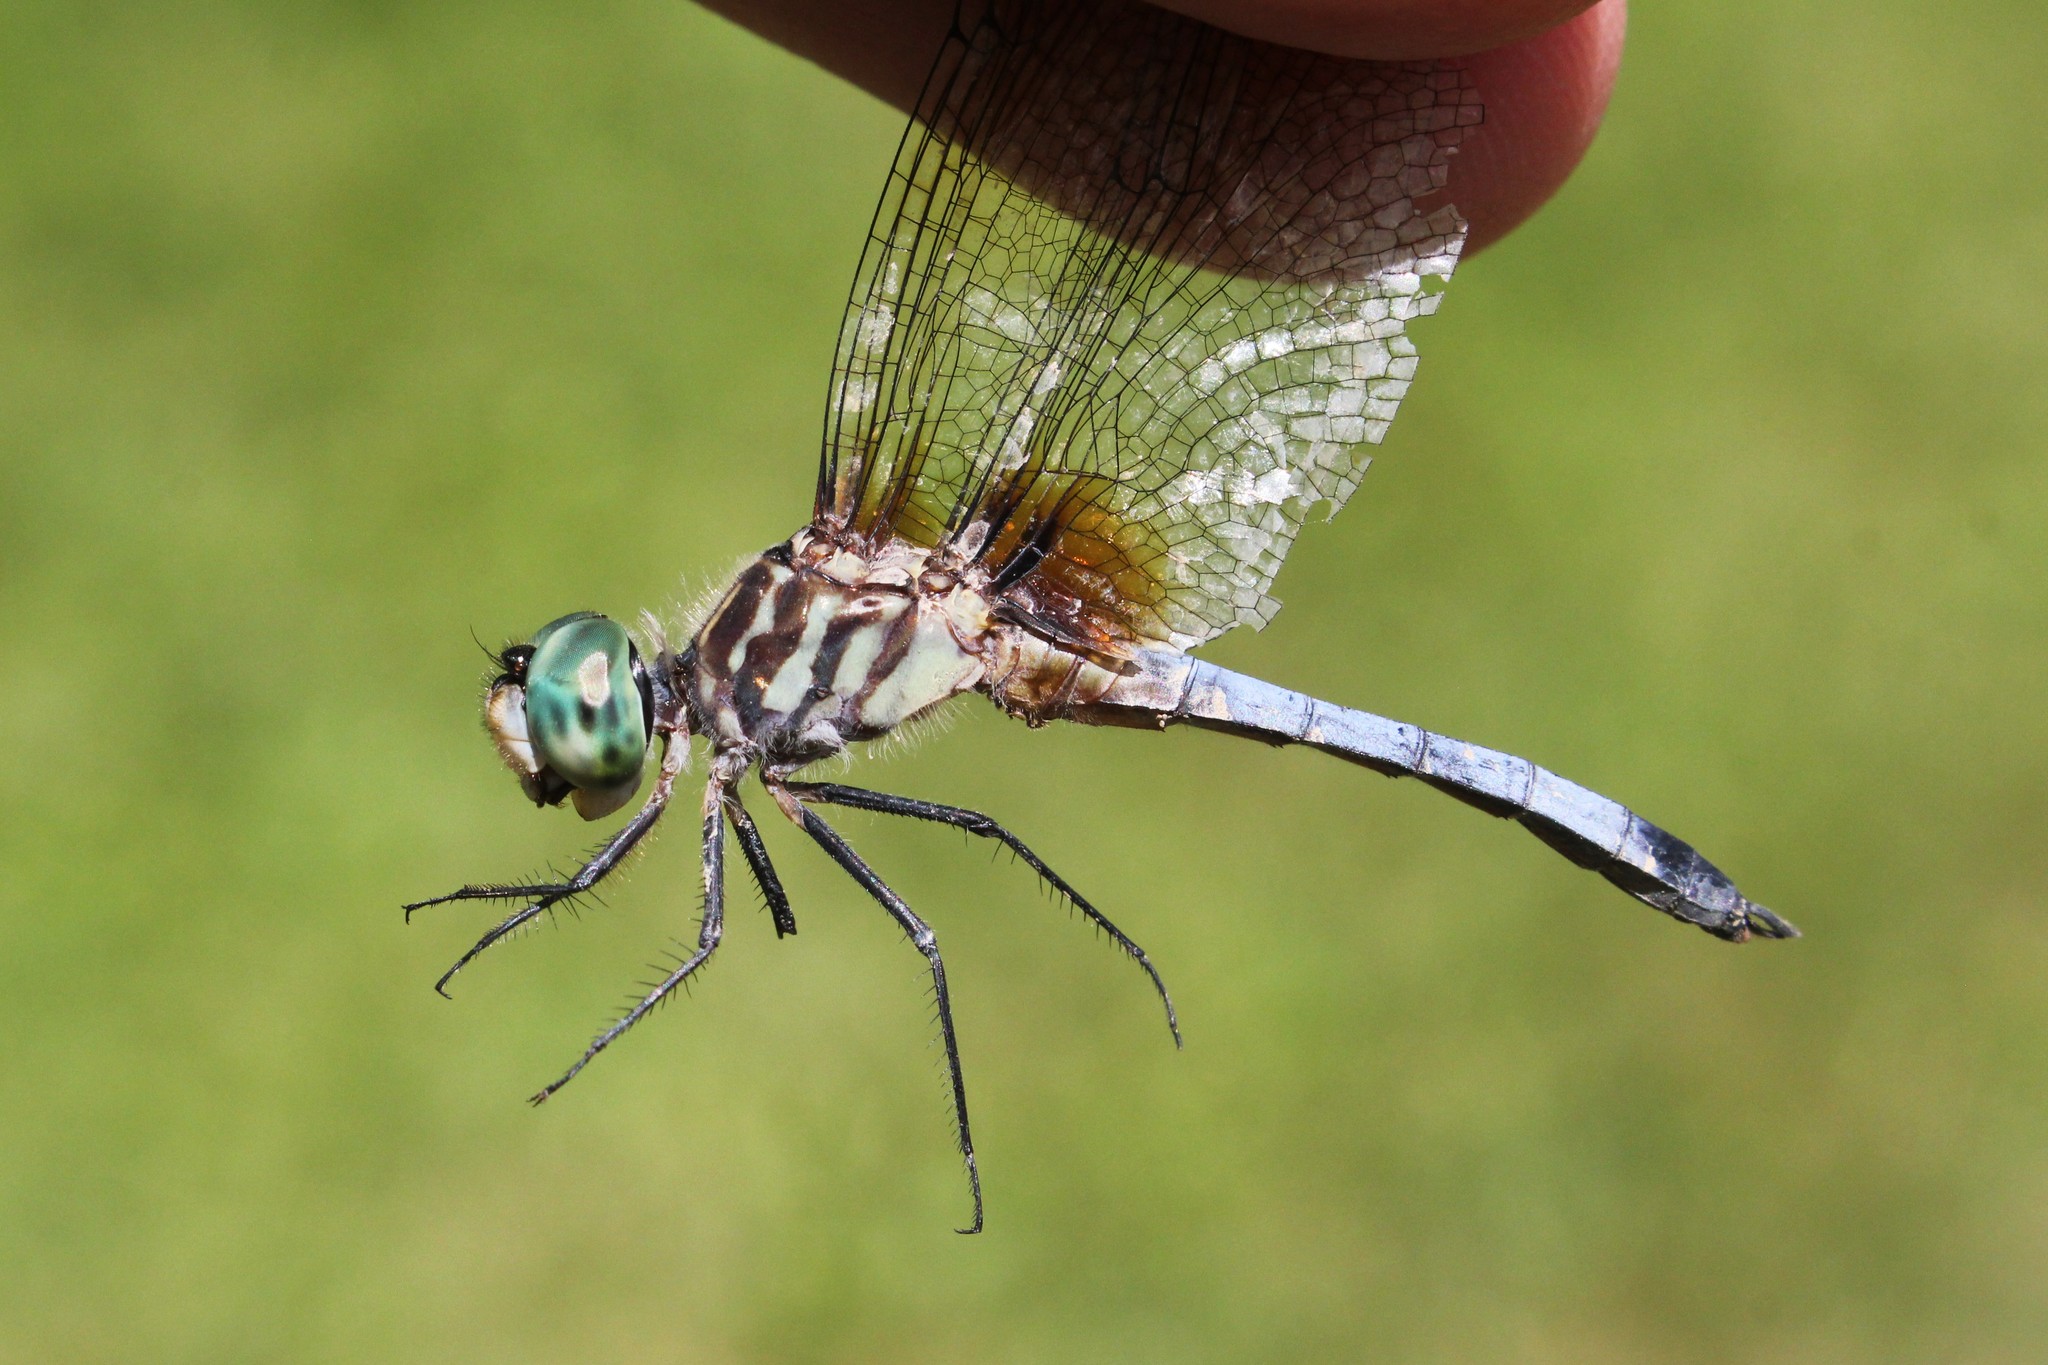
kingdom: Animalia
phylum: Arthropoda
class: Insecta
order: Odonata
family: Libellulidae
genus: Pachydiplax
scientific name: Pachydiplax longipennis
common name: Blue dasher
